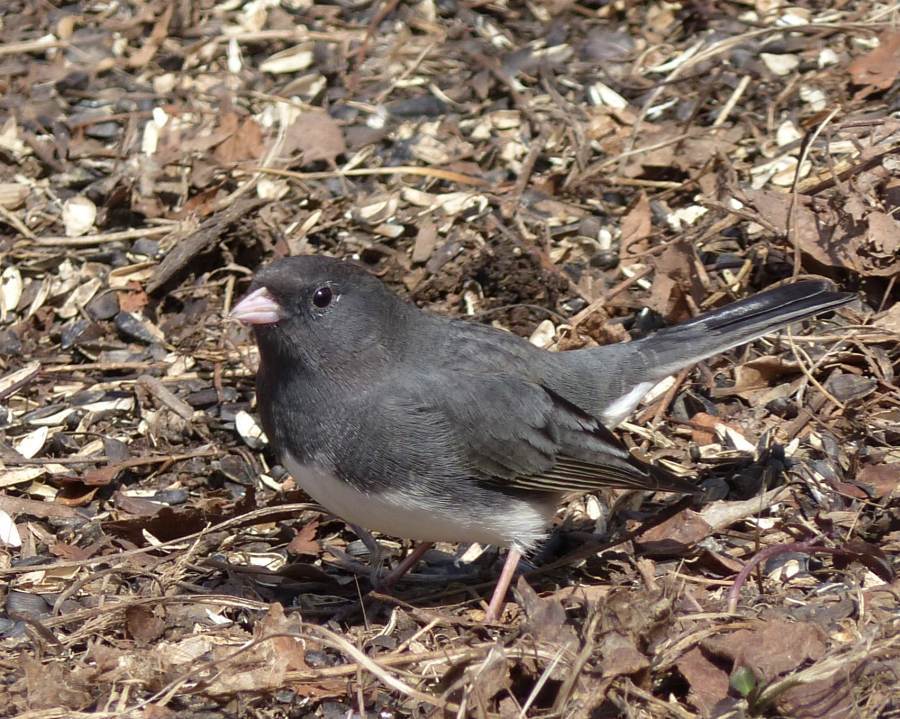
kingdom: Animalia
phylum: Chordata
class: Aves
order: Passeriformes
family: Passerellidae
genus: Junco
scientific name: Junco hyemalis
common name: Dark-eyed junco
